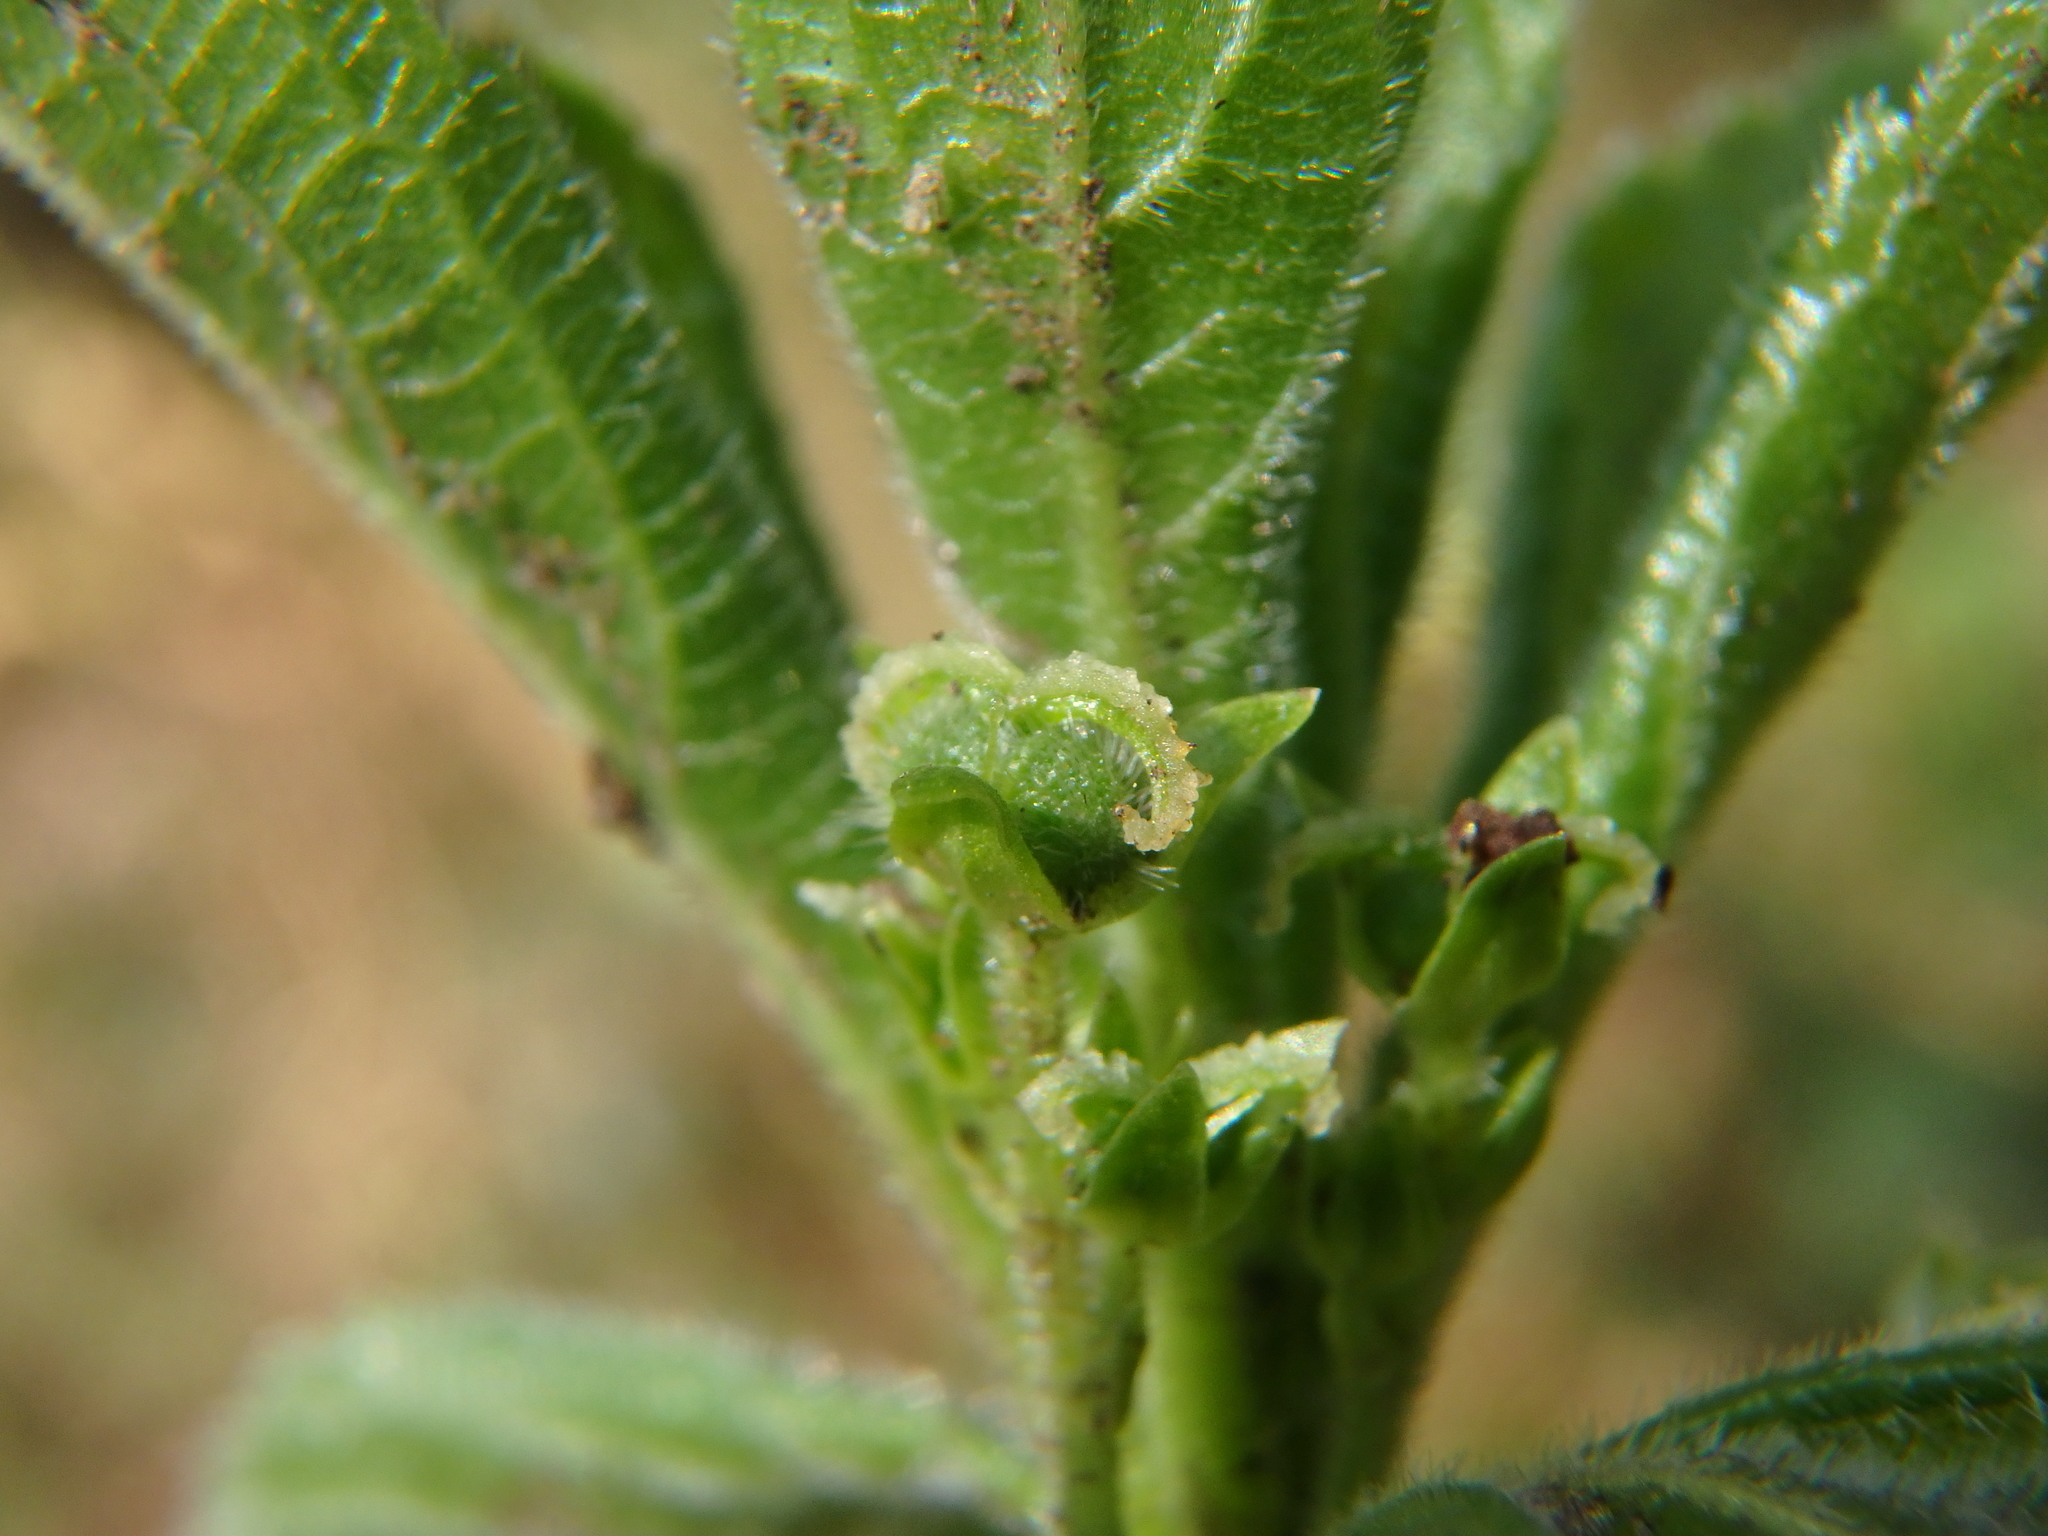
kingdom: Plantae
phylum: Tracheophyta
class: Magnoliopsida
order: Malpighiales
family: Euphorbiaceae
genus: Mercurialis
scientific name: Mercurialis perennis
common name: Dog mercury
